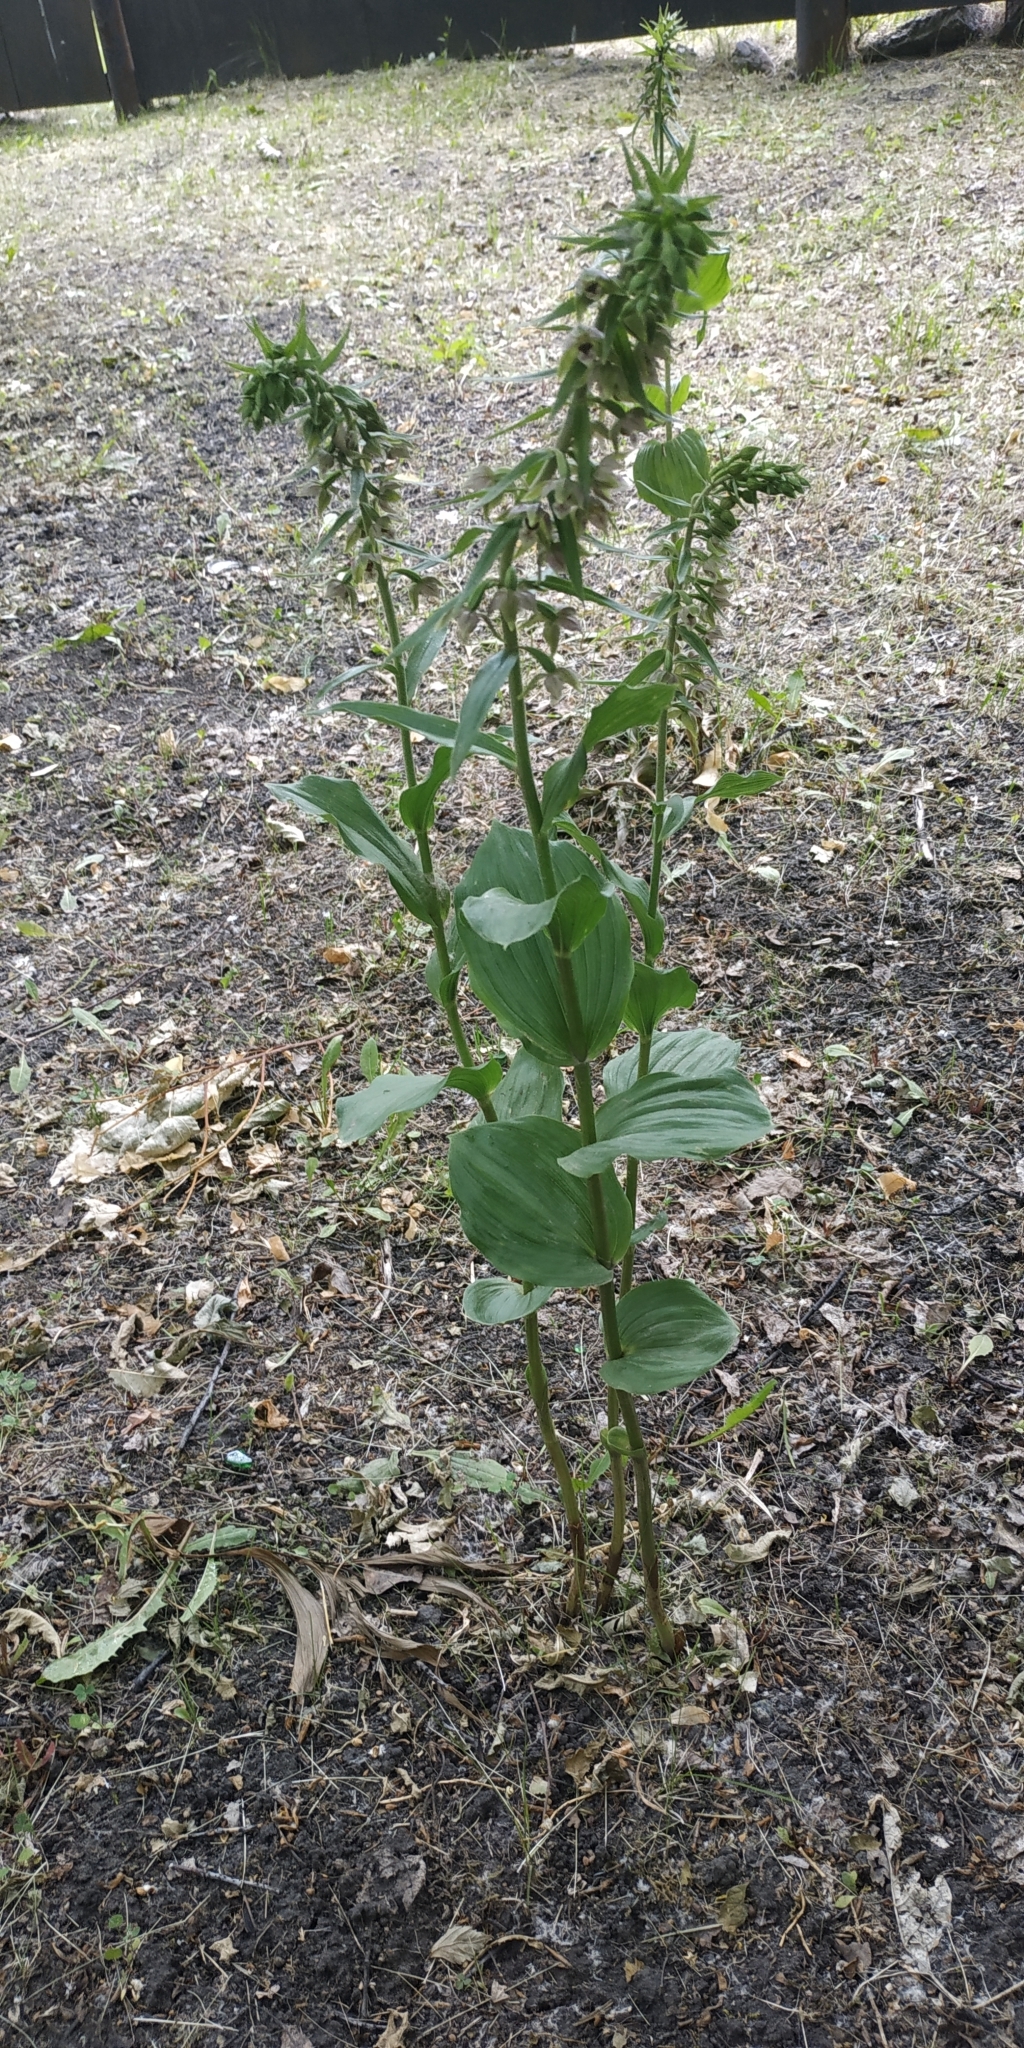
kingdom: Plantae
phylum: Tracheophyta
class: Liliopsida
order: Asparagales
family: Orchidaceae
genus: Epipactis
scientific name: Epipactis helleborine
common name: Broad-leaved helleborine
